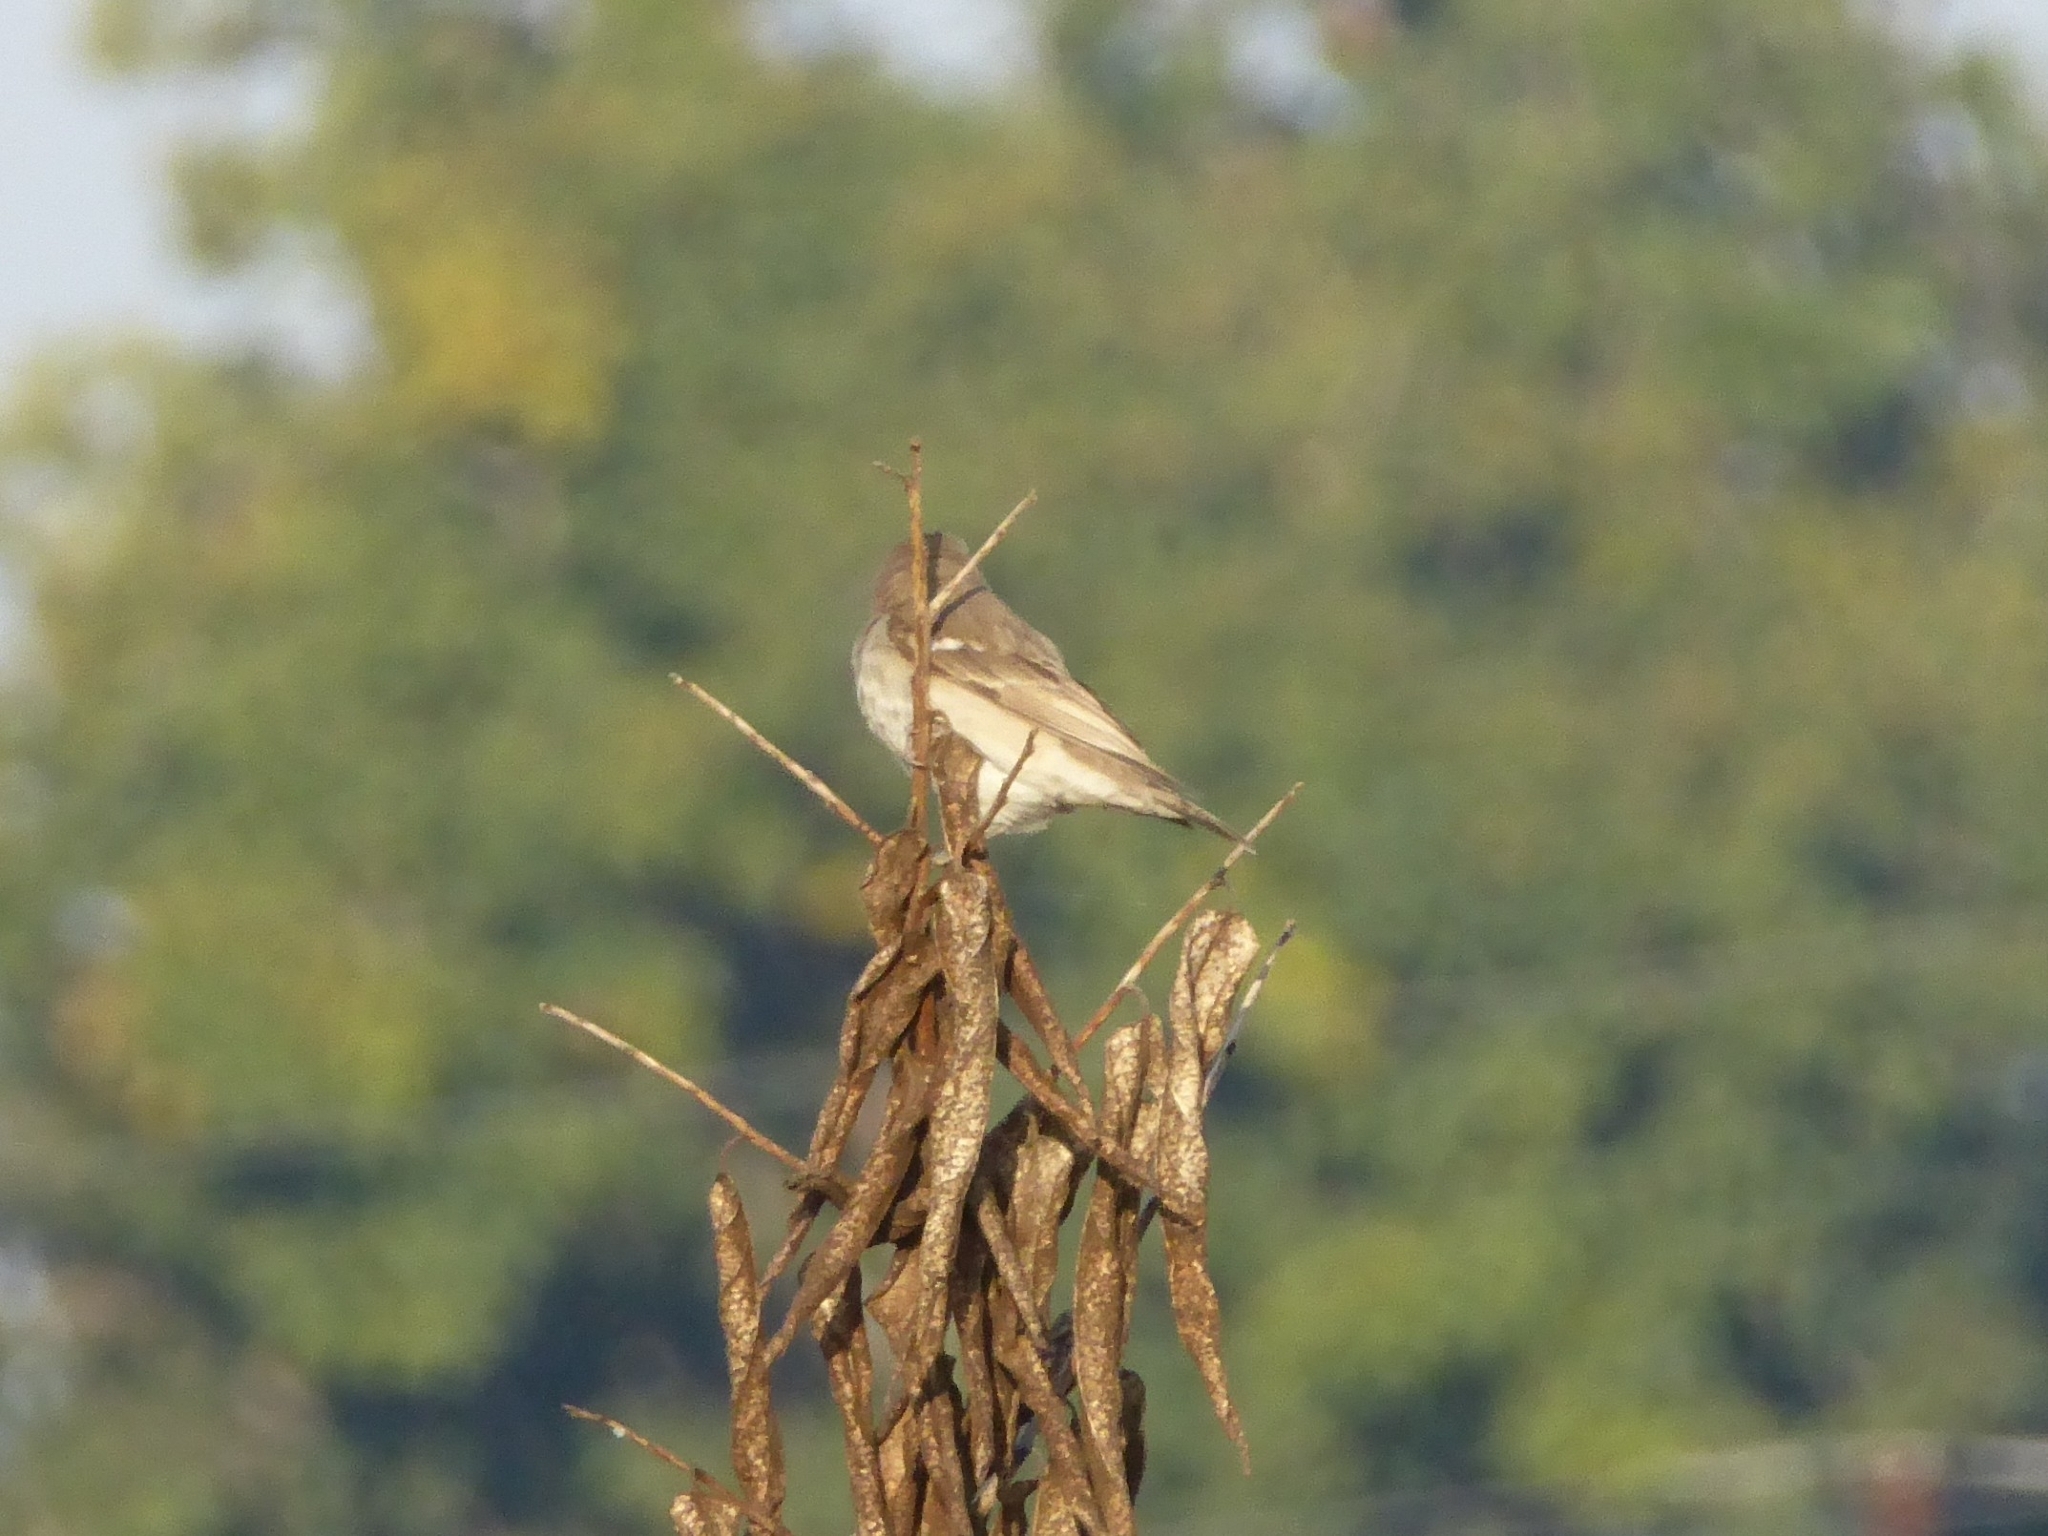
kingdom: Animalia
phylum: Chordata
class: Aves
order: Passeriformes
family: Passeridae
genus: Gymnoris
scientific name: Gymnoris xanthocollis
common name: Yellow-throated sparrow
